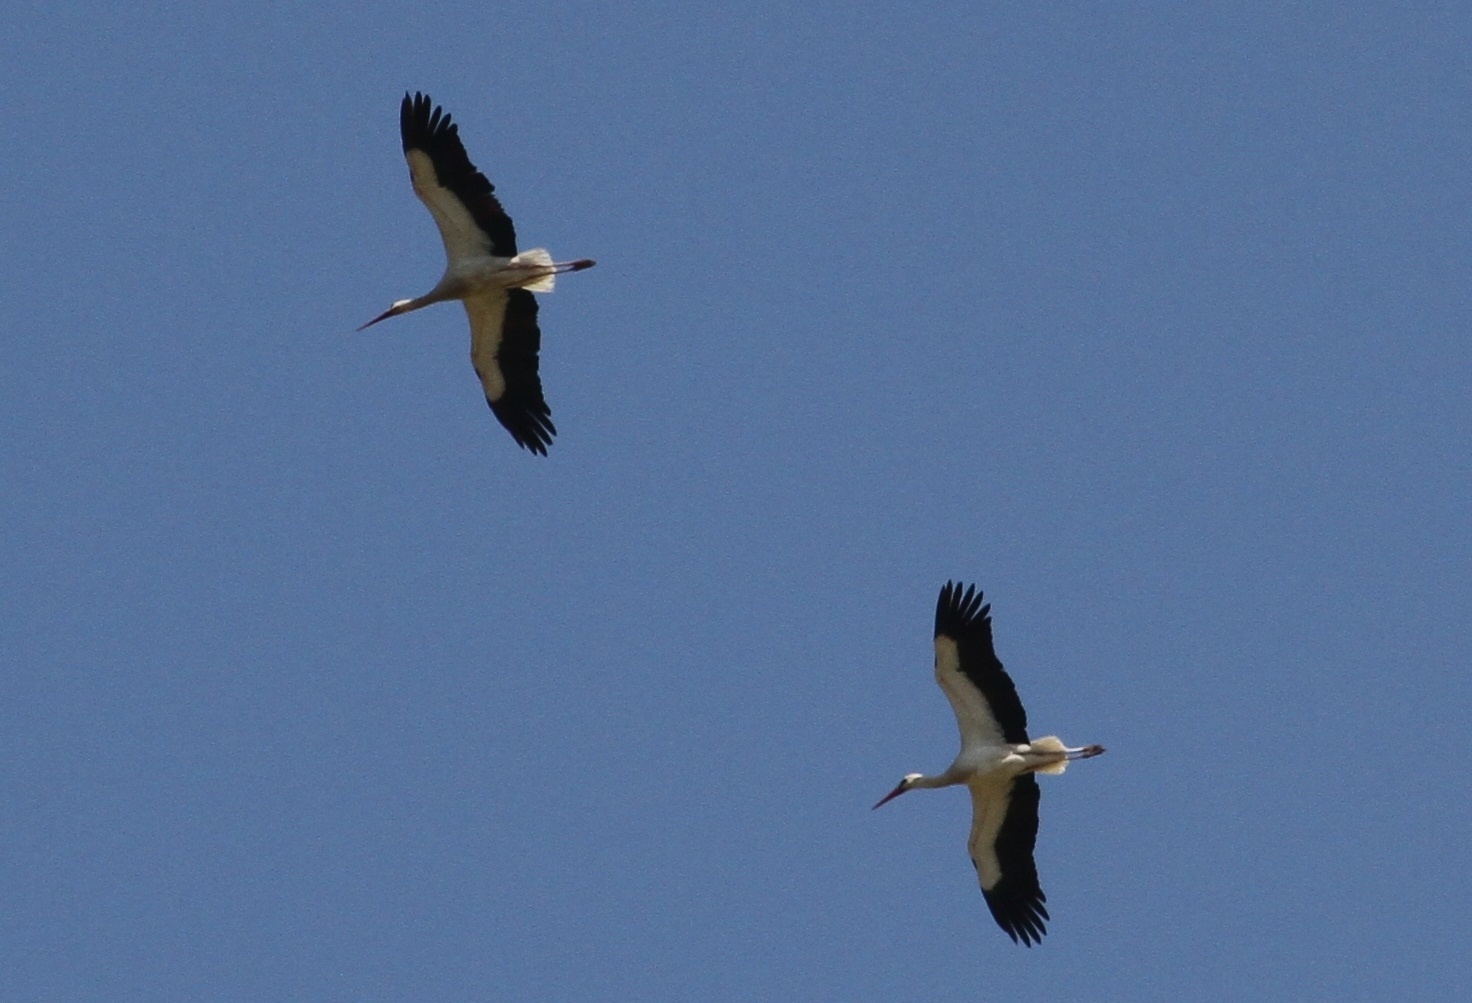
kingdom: Animalia
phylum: Chordata
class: Aves
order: Ciconiiformes
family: Ciconiidae
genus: Ciconia
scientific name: Ciconia ciconia
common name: White stork
